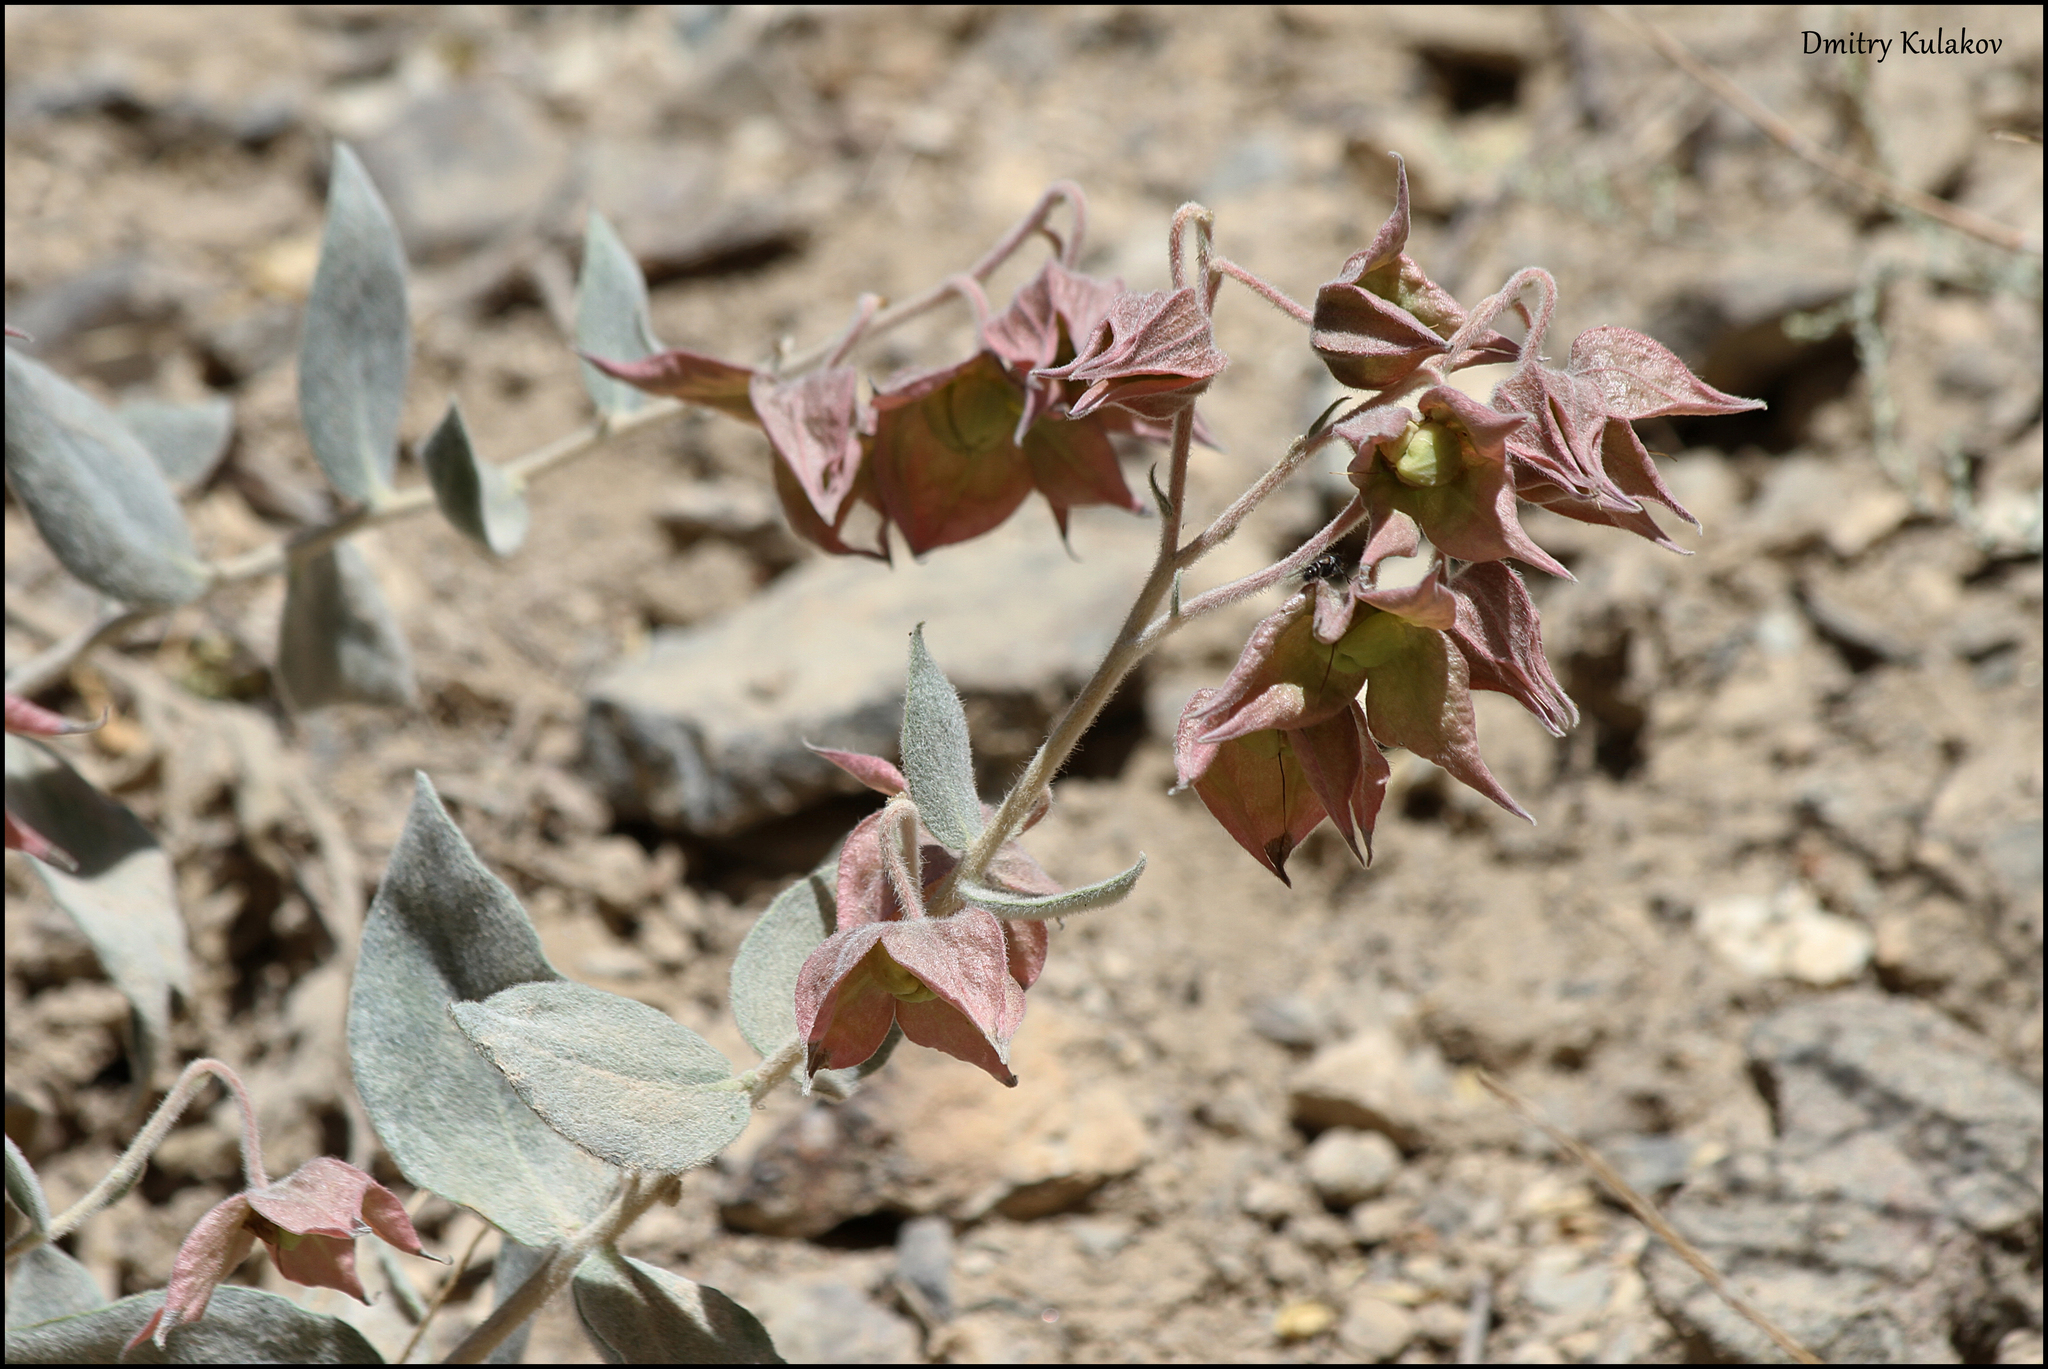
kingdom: Plantae
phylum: Tracheophyta
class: Magnoliopsida
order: Boraginales
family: Boraginaceae
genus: Trichodesma
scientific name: Trichodesma incanum
